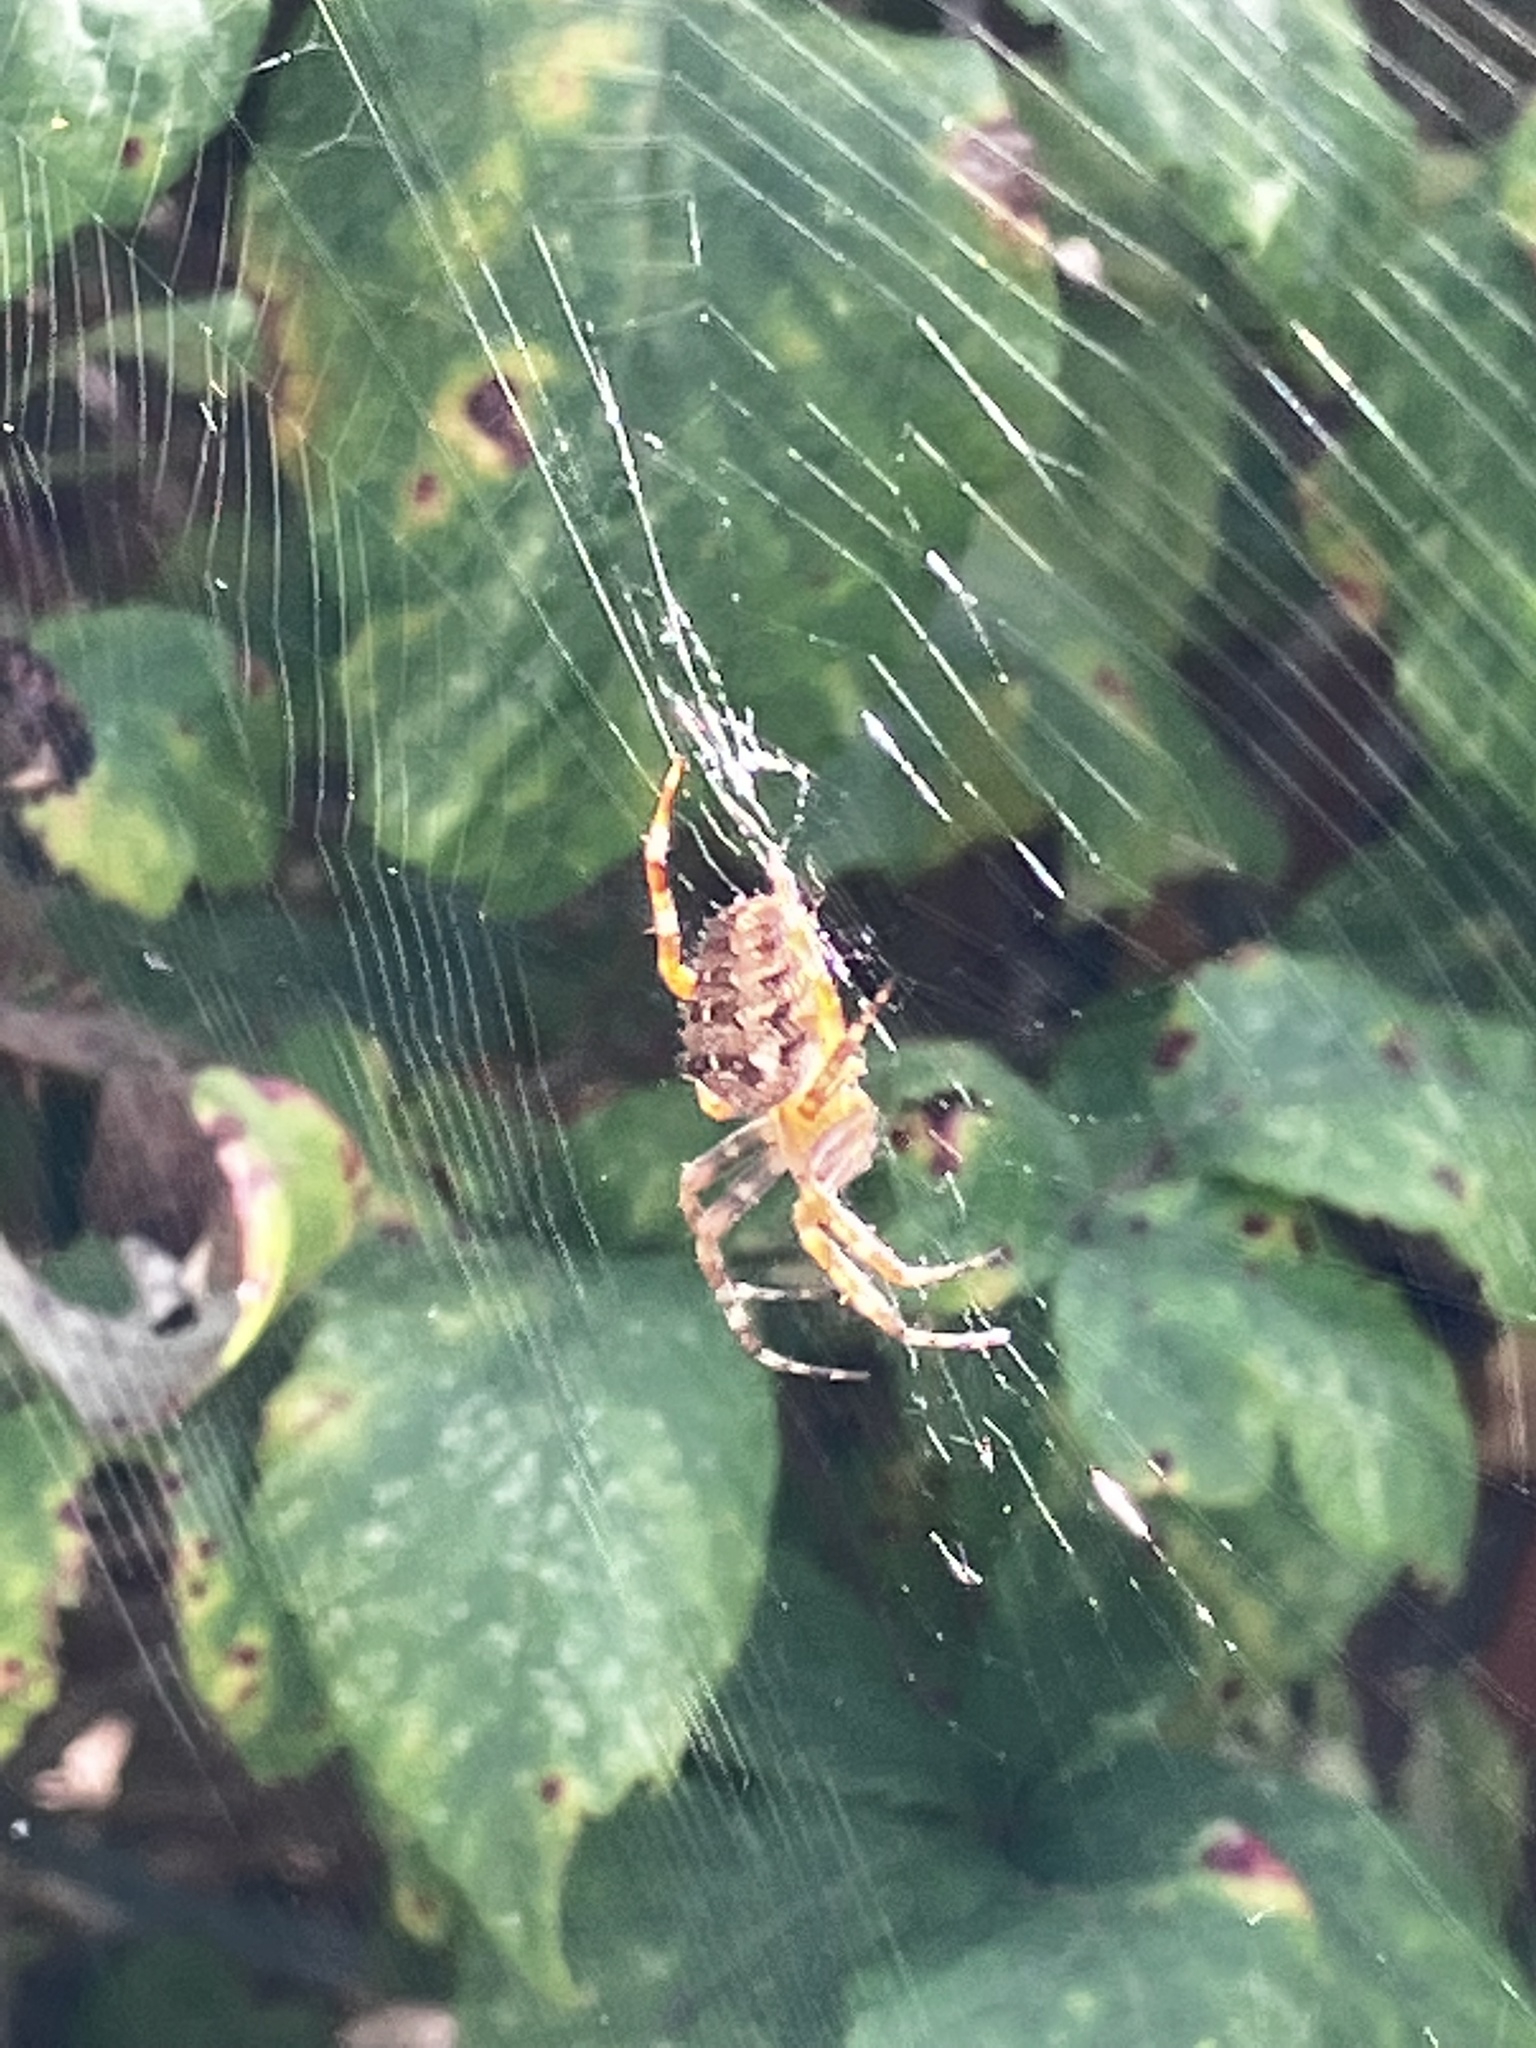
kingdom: Animalia
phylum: Arthropoda
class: Arachnida
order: Araneae
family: Araneidae
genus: Araneus
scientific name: Araneus diadematus
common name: Cross orbweaver
